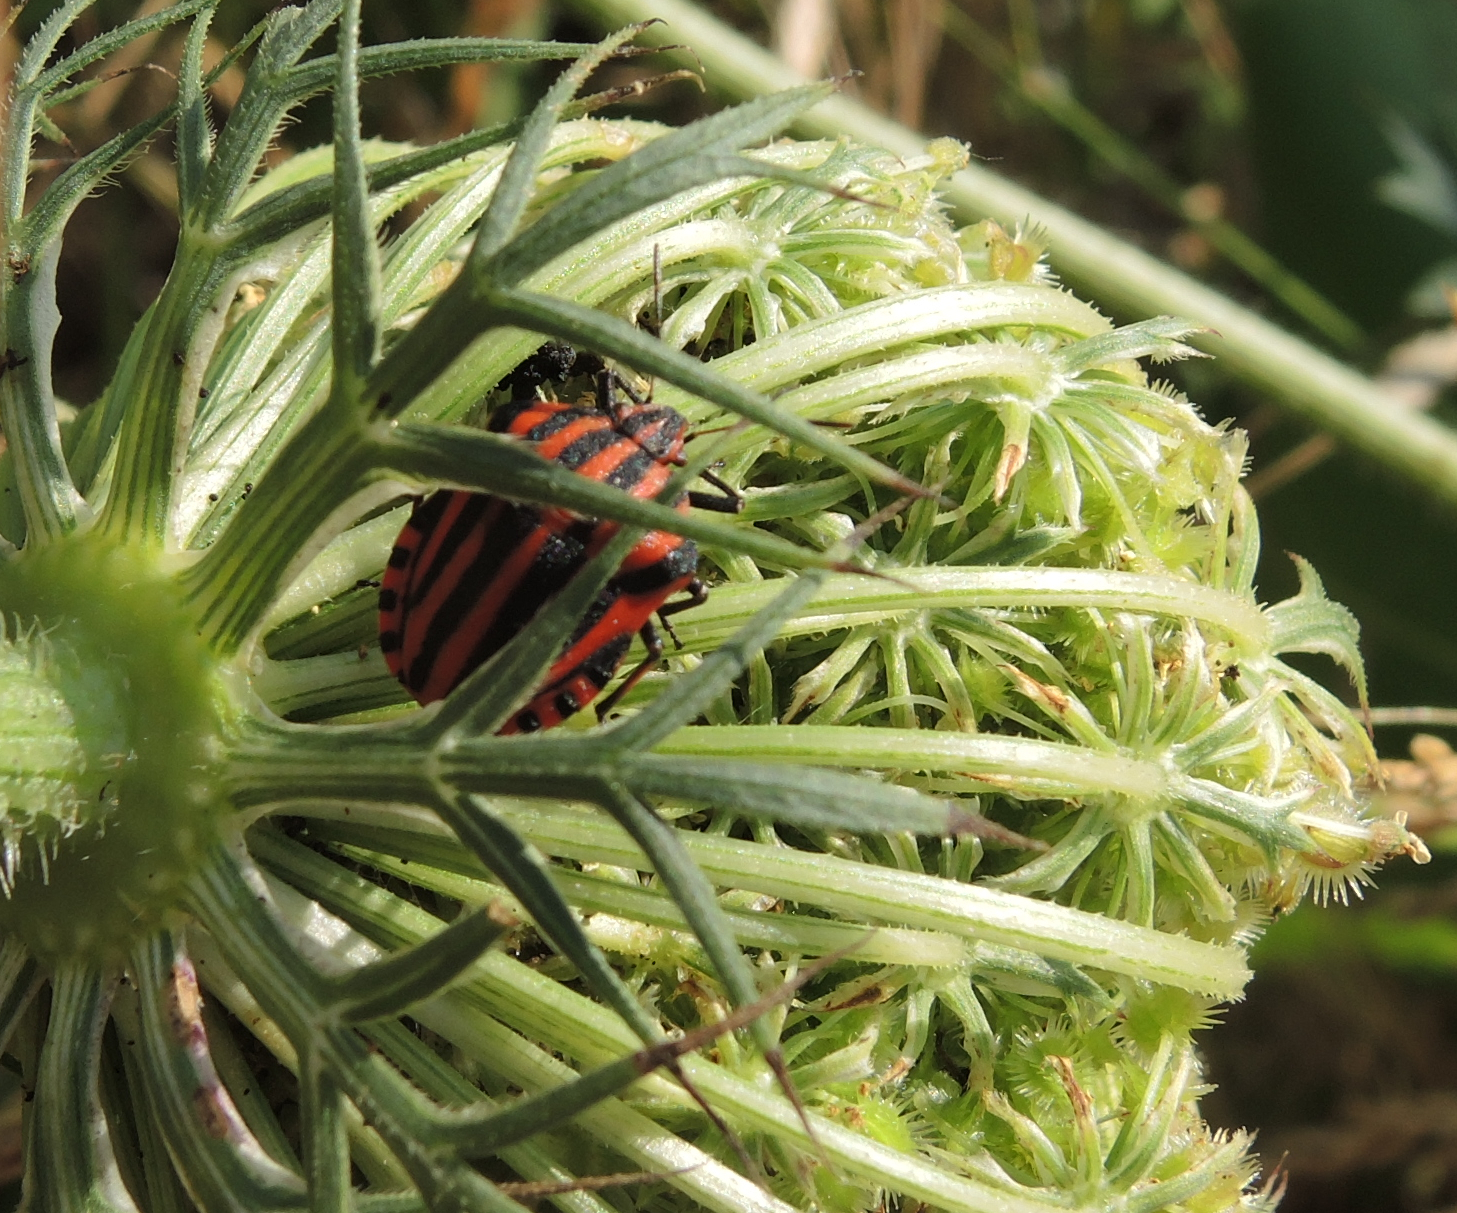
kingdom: Animalia
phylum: Arthropoda
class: Insecta
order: Hemiptera
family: Pentatomidae
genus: Graphosoma
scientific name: Graphosoma italicum
